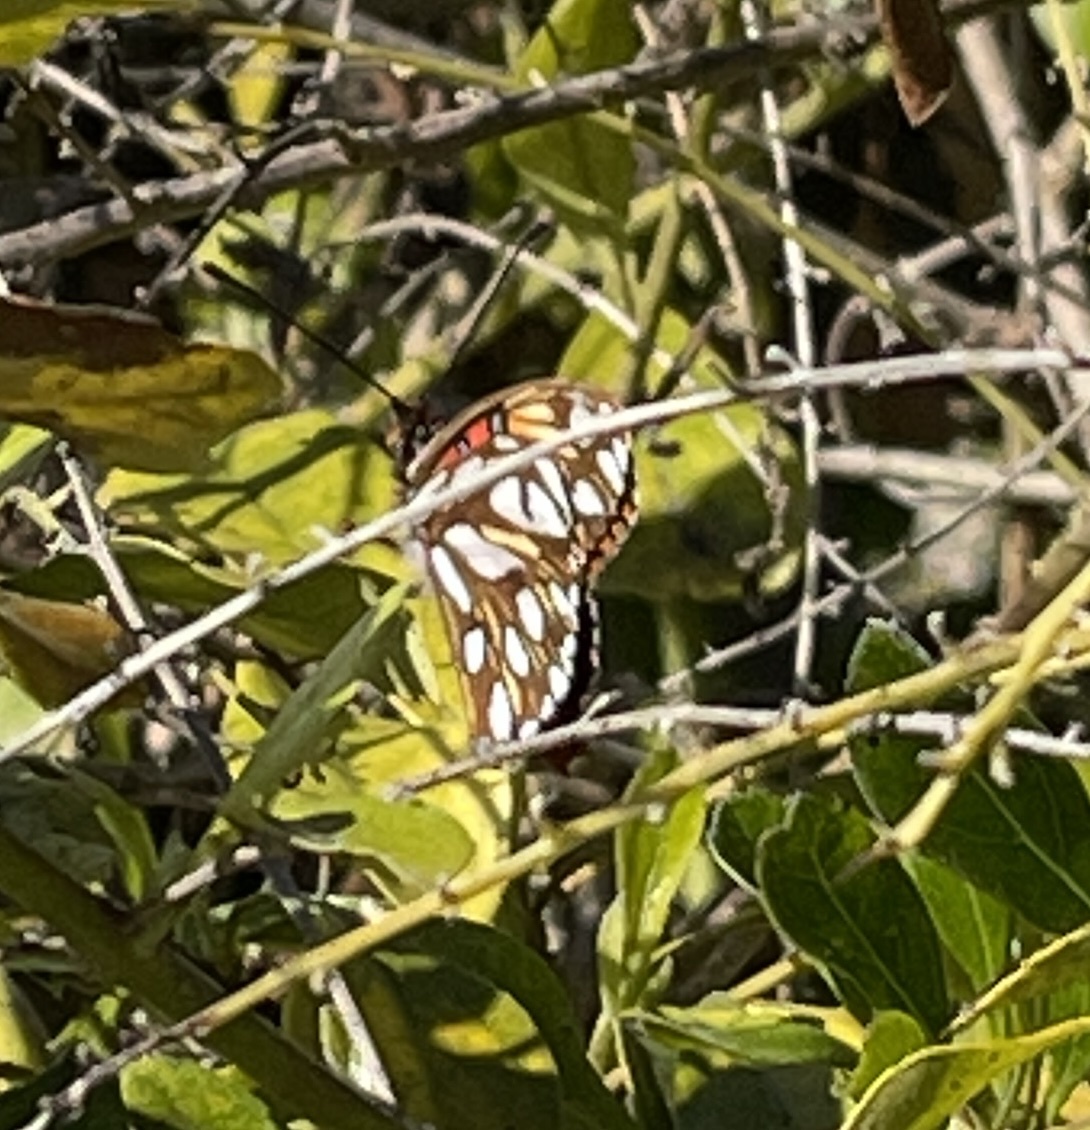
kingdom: Animalia
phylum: Arthropoda
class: Insecta
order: Lepidoptera
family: Nymphalidae
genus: Dione
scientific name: Dione vanillae
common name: Gulf fritillary
